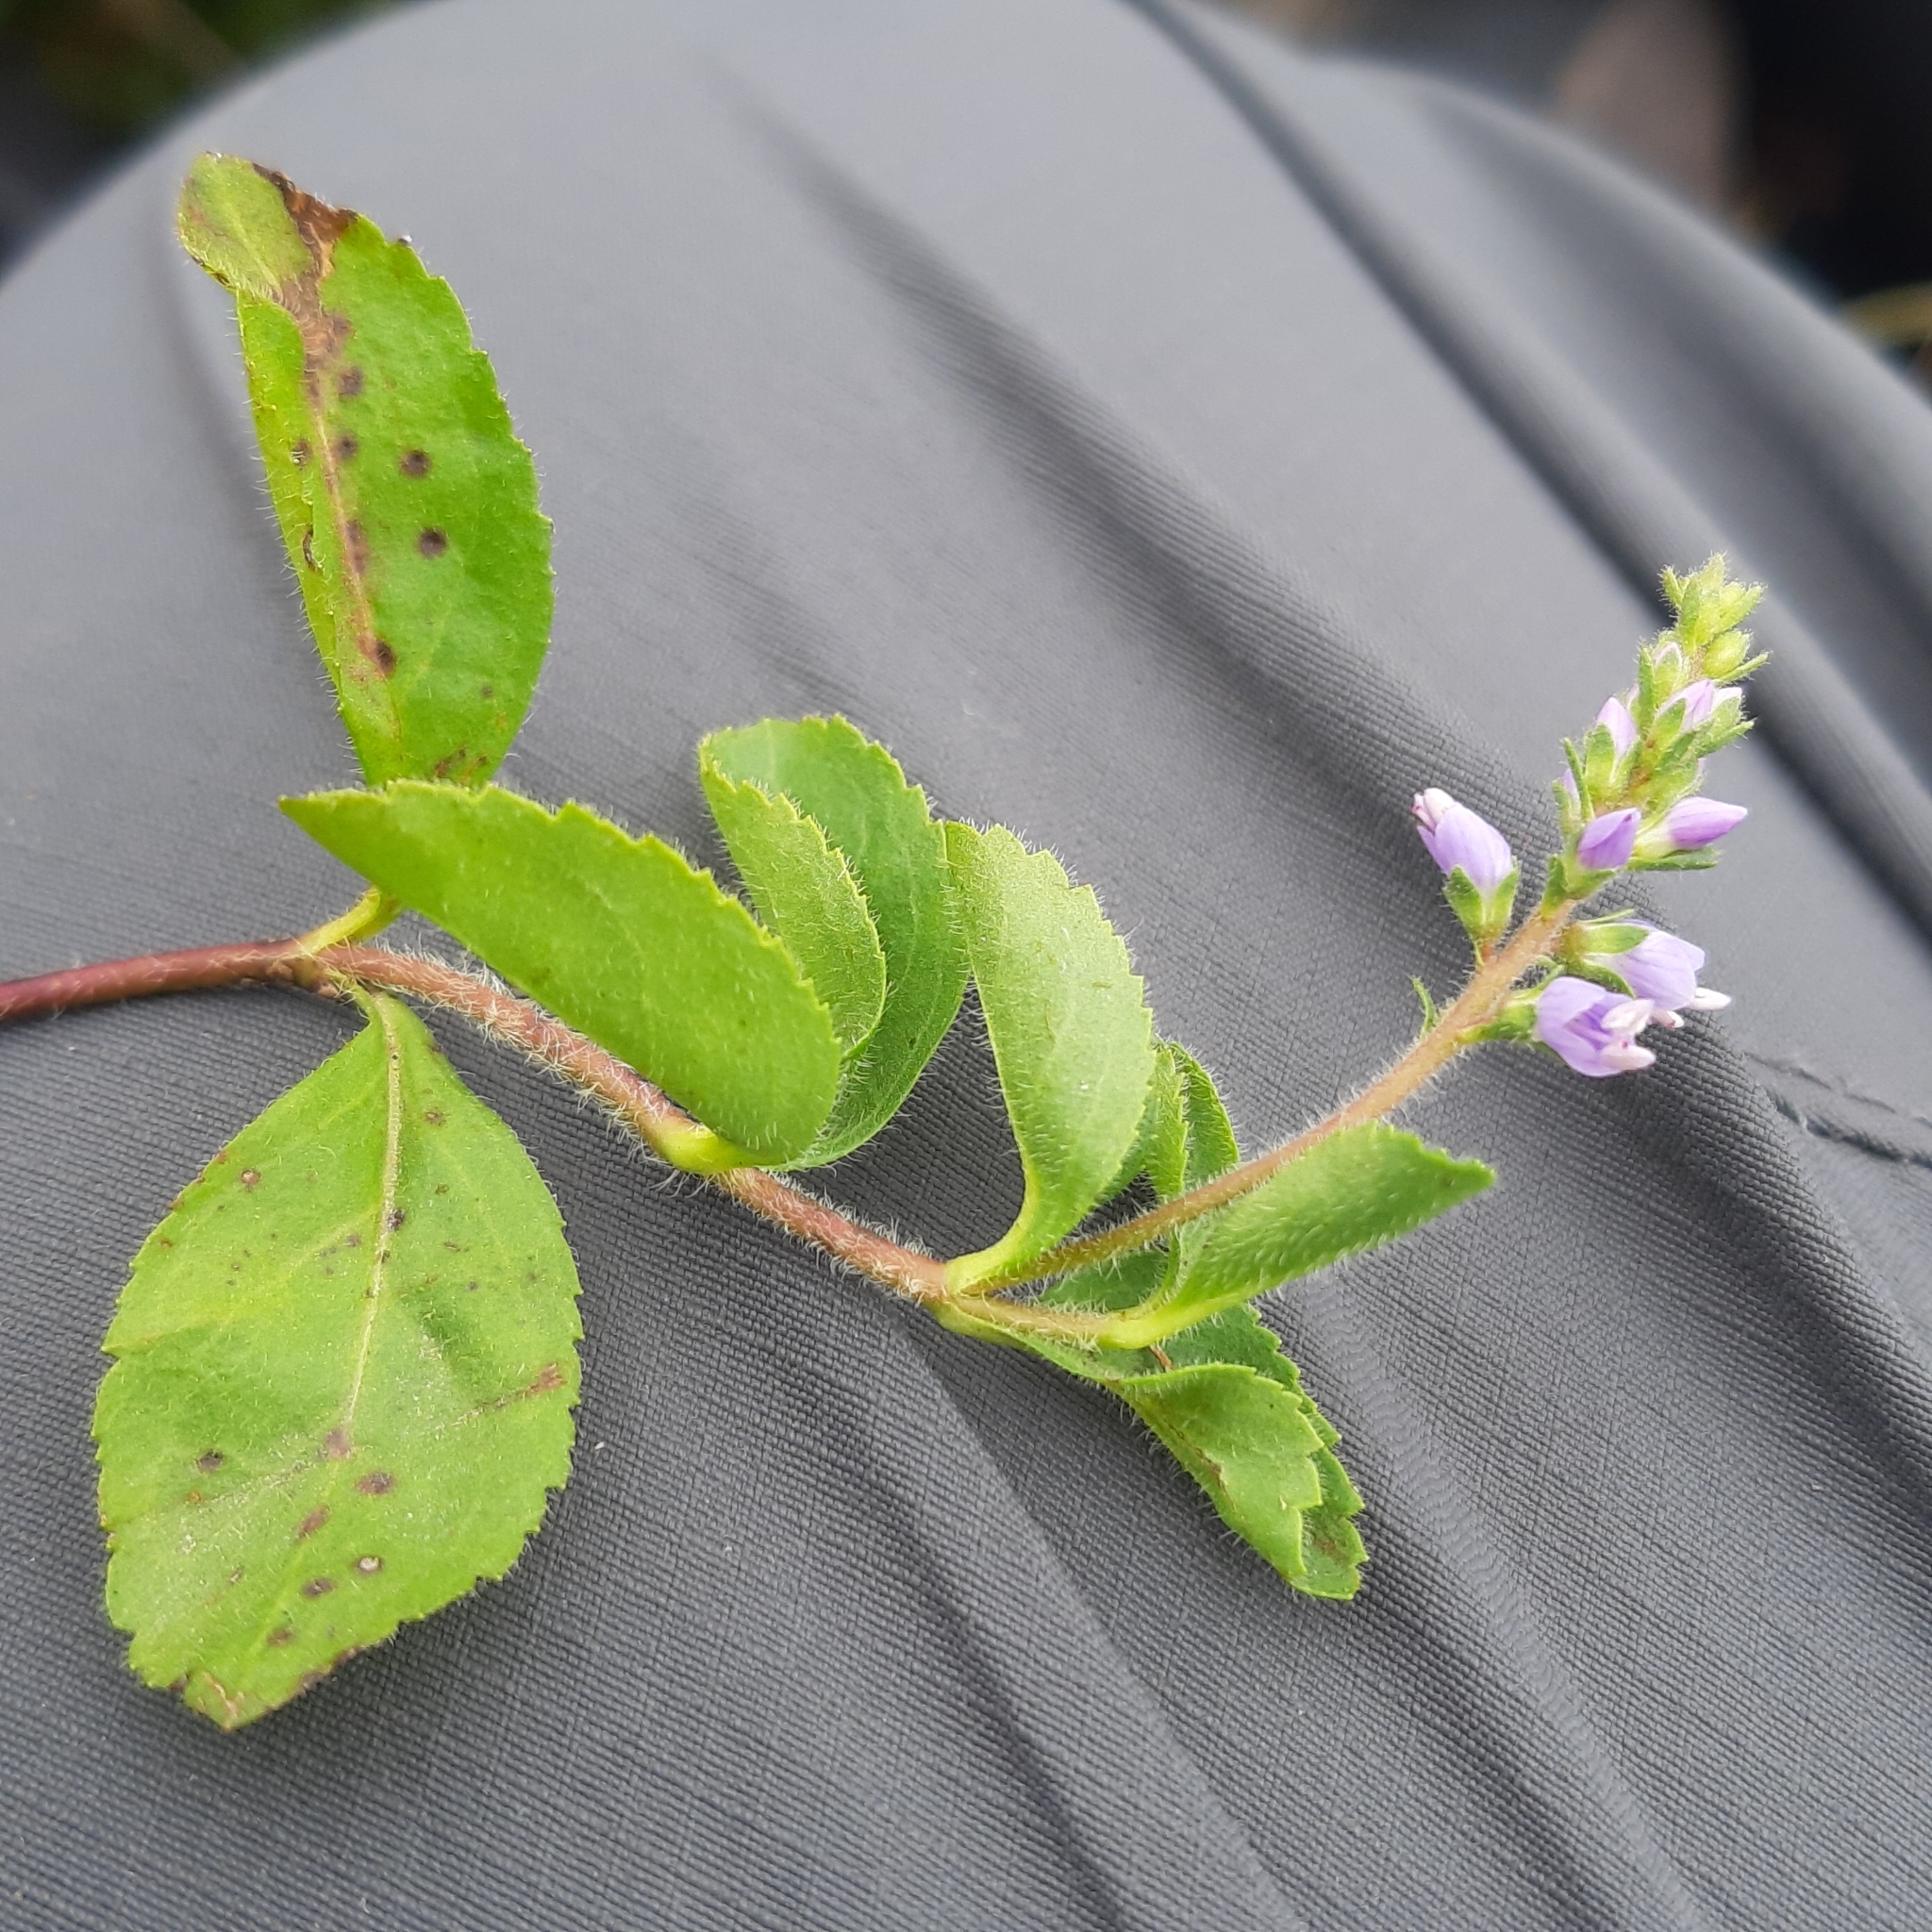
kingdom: Plantae
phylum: Tracheophyta
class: Magnoliopsida
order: Lamiales
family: Plantaginaceae
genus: Veronica
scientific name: Veronica officinalis
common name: Common speedwell
